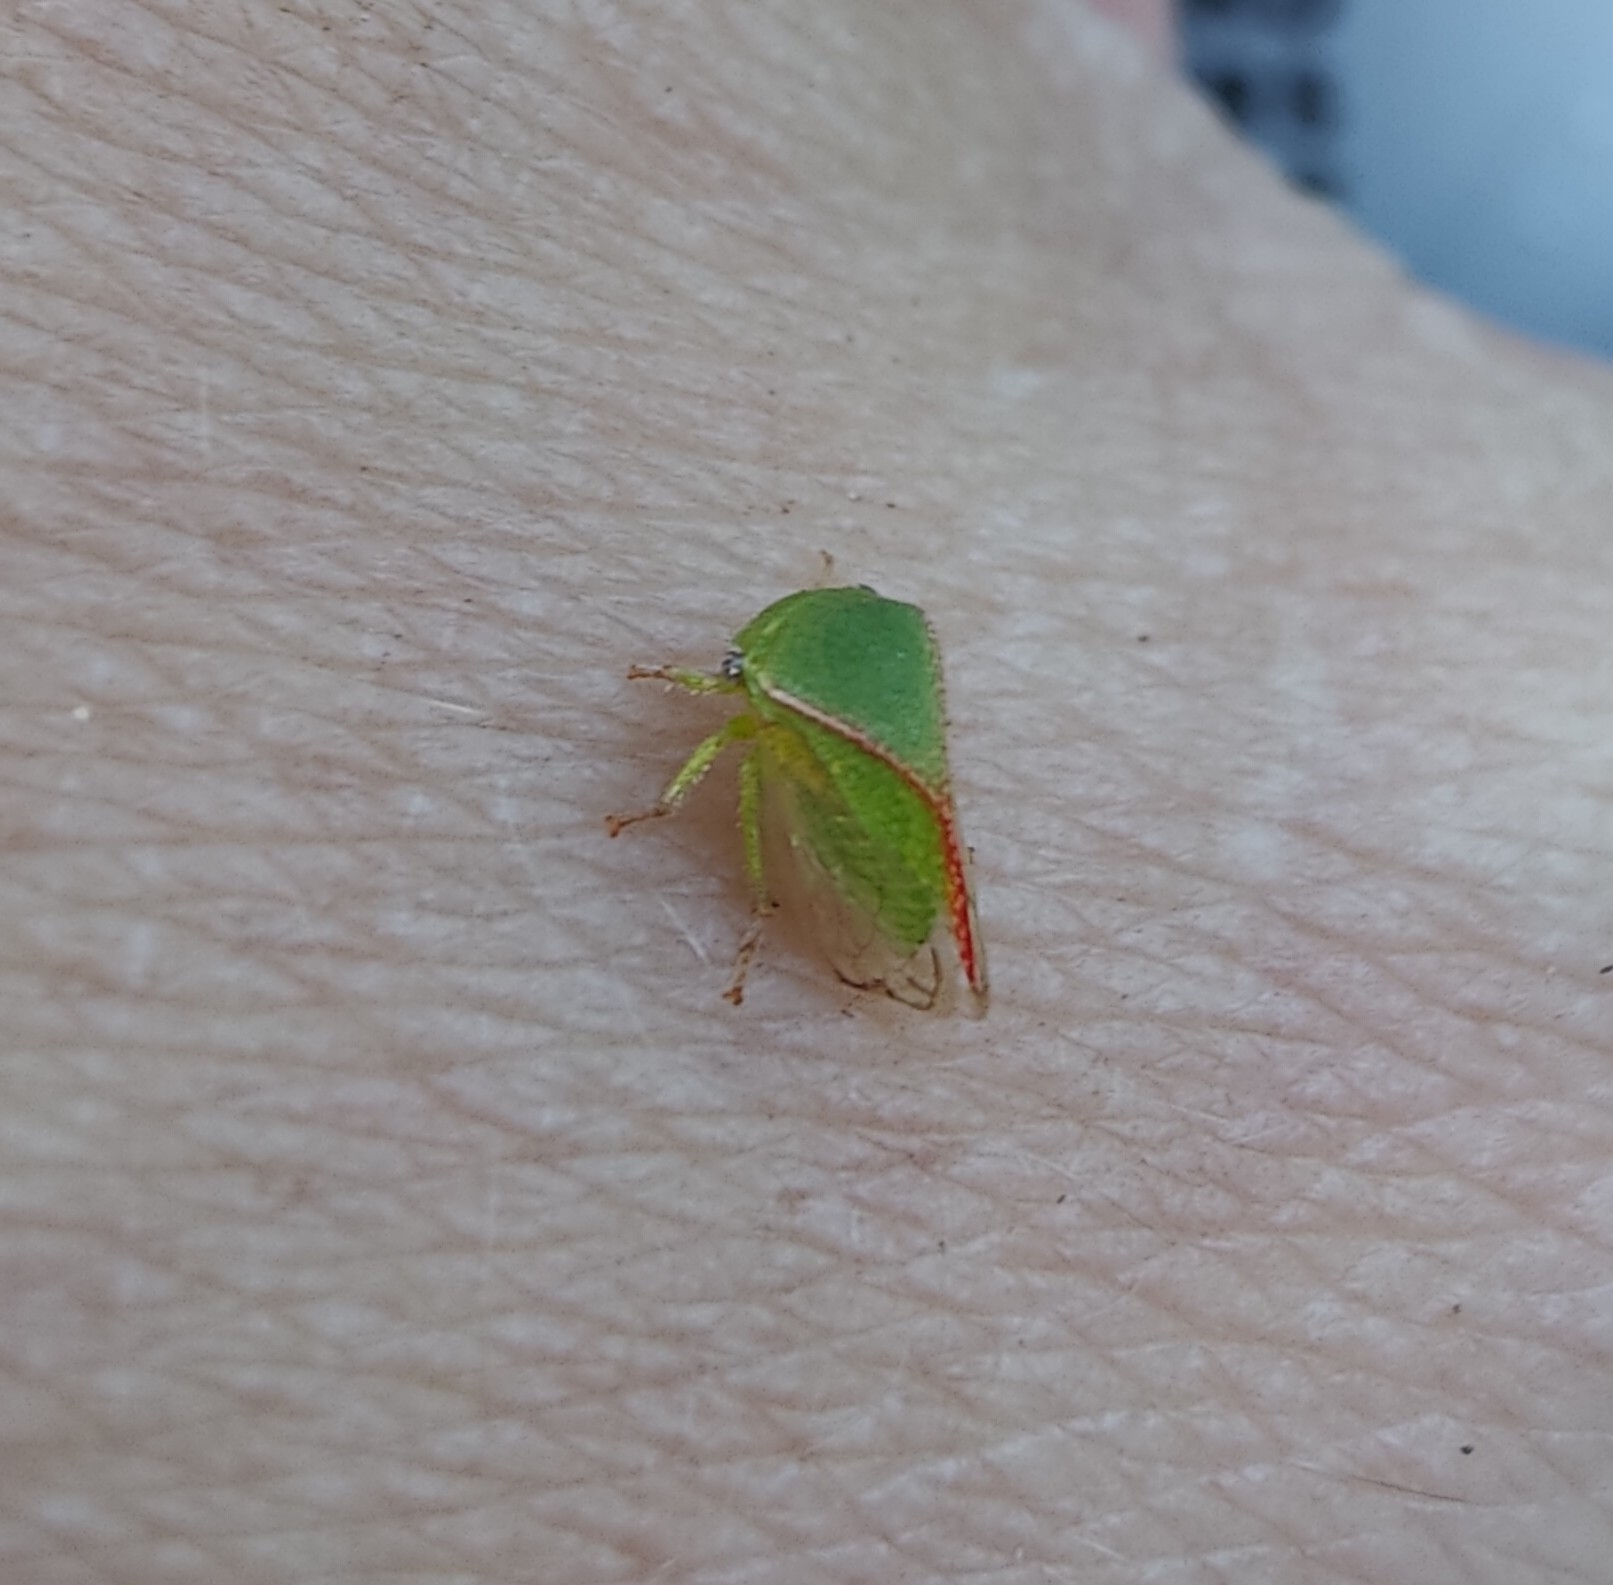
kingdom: Animalia
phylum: Arthropoda
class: Insecta
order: Hemiptera
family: Membracidae
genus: Spissistilus
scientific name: Spissistilus festina
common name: Membracid bug
